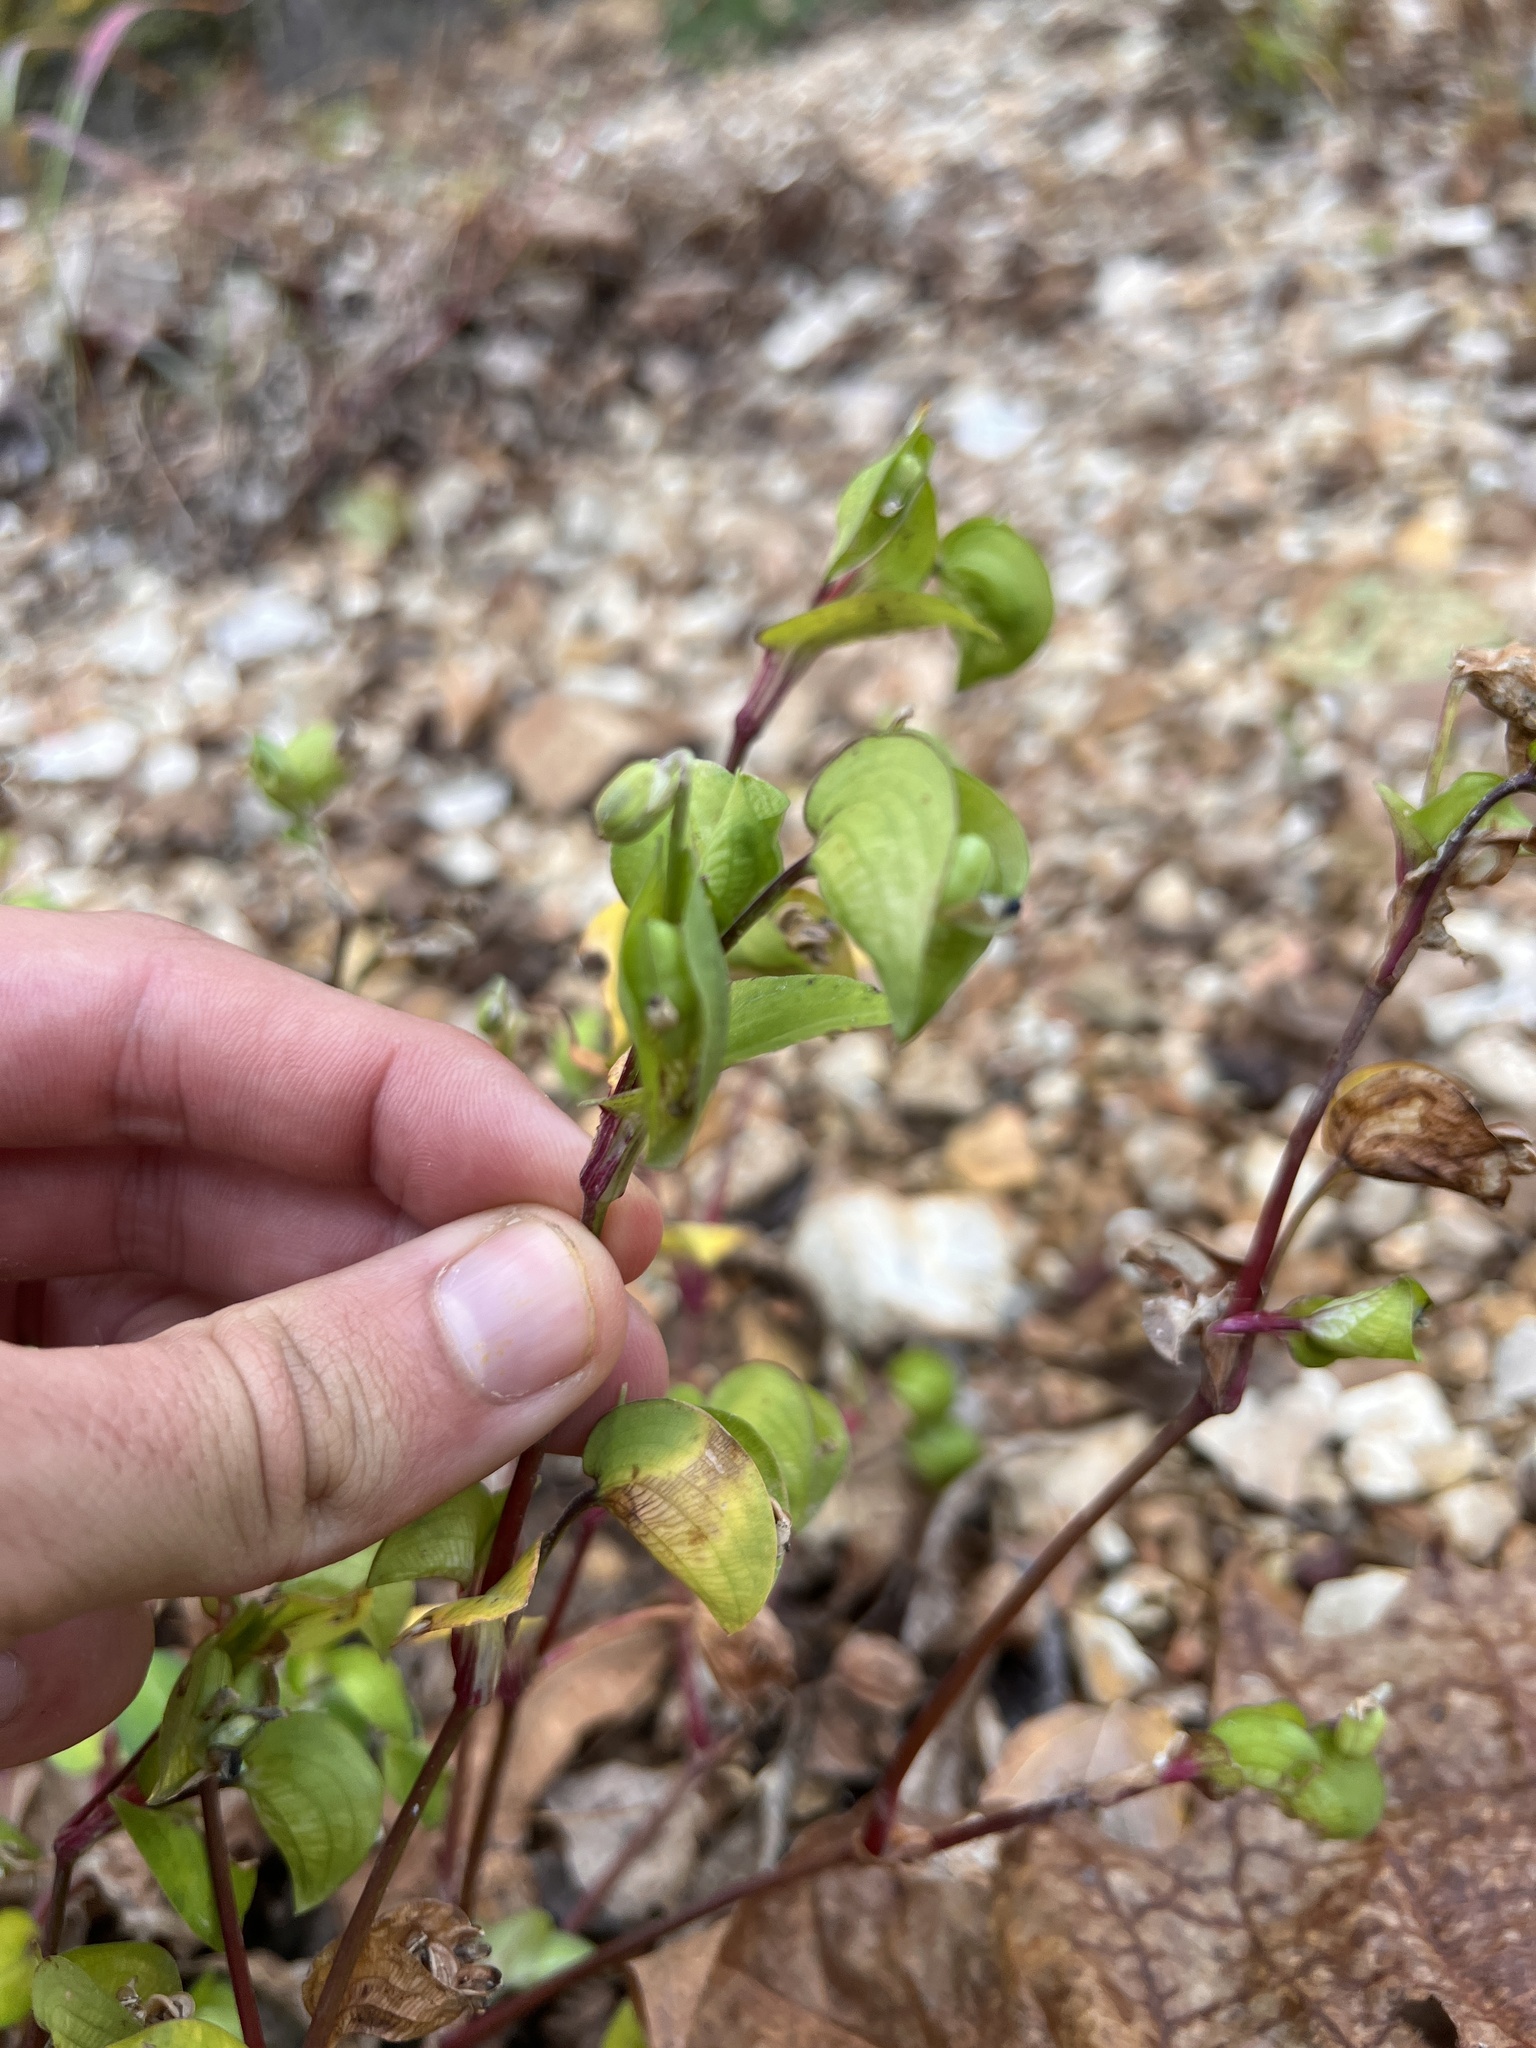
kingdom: Plantae
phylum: Tracheophyta
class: Liliopsida
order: Commelinales
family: Commelinaceae
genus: Commelina
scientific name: Commelina communis
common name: Asiatic dayflower
